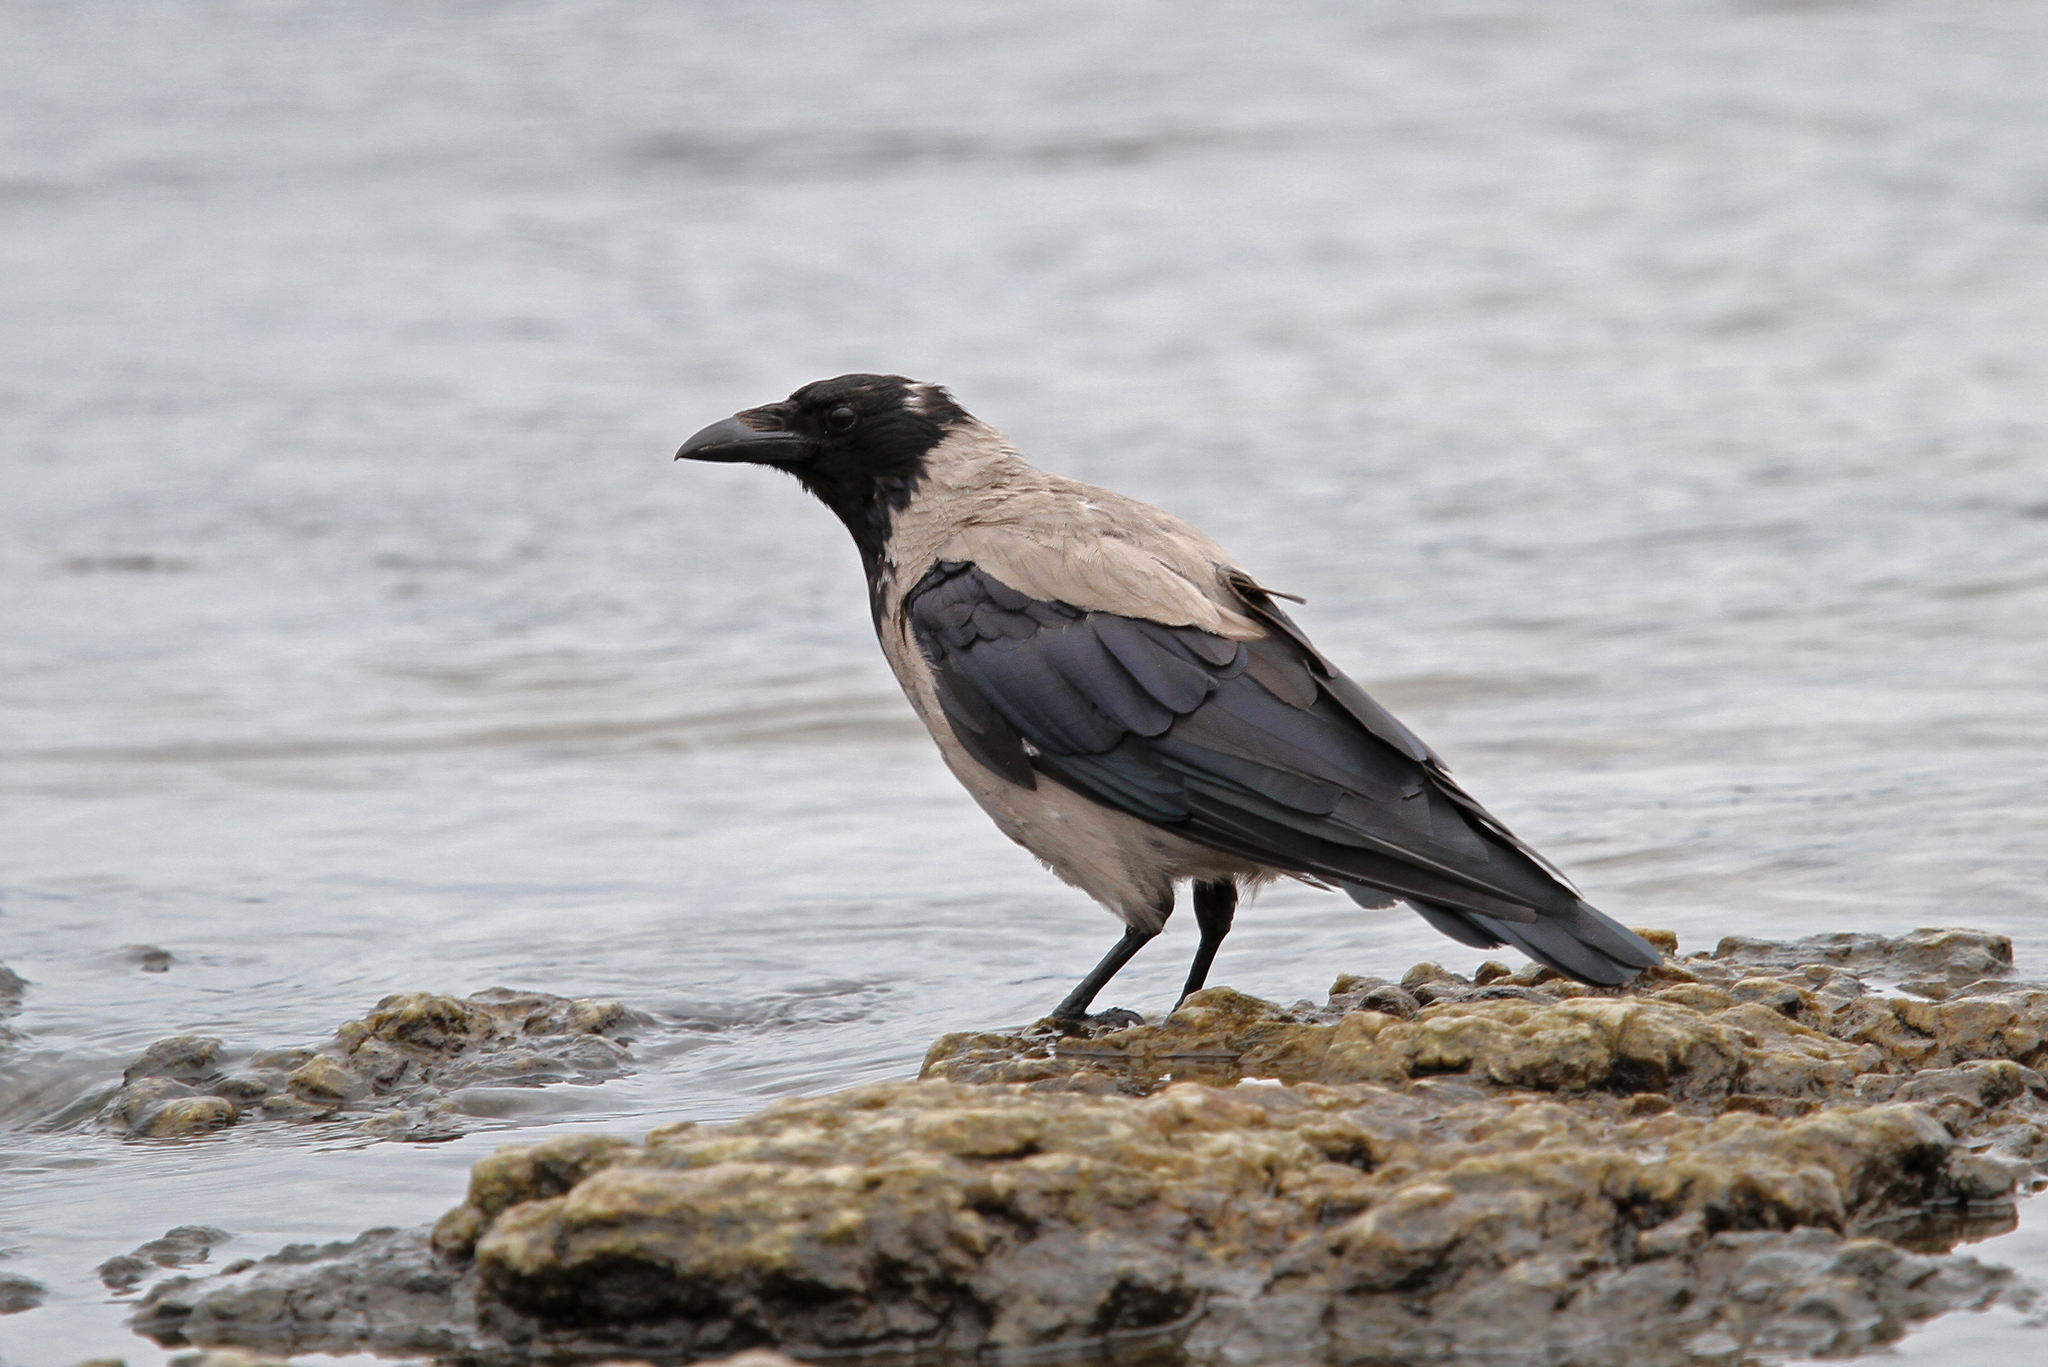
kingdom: Animalia
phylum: Chordata
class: Aves
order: Passeriformes
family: Corvidae
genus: Corvus
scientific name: Corvus cornix
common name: Hooded crow
